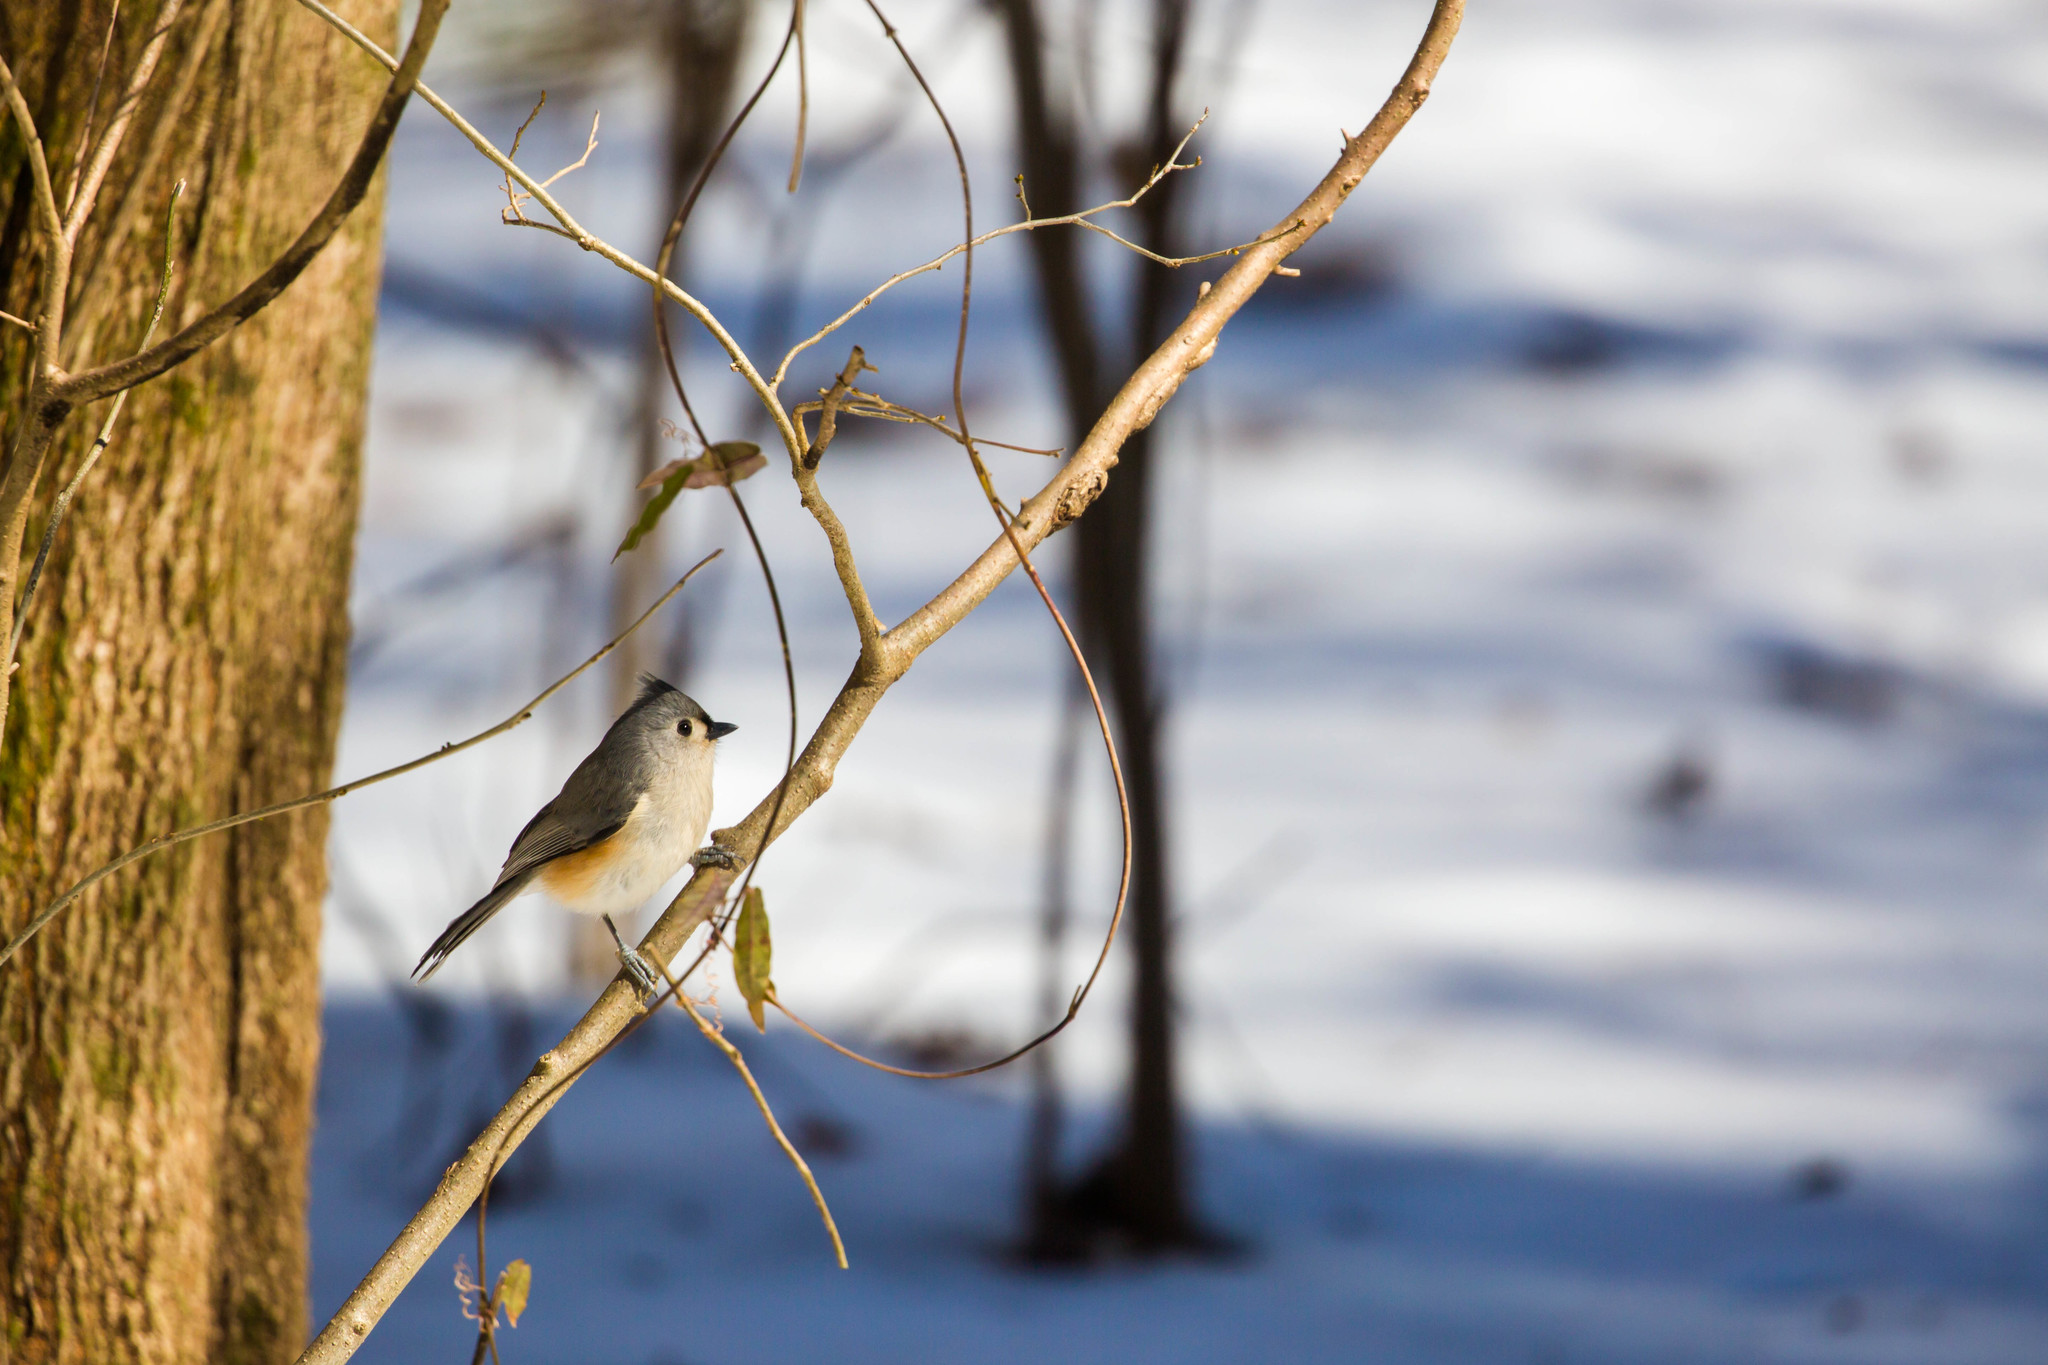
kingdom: Animalia
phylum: Chordata
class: Aves
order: Passeriformes
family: Paridae
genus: Baeolophus
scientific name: Baeolophus bicolor
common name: Tufted titmouse
